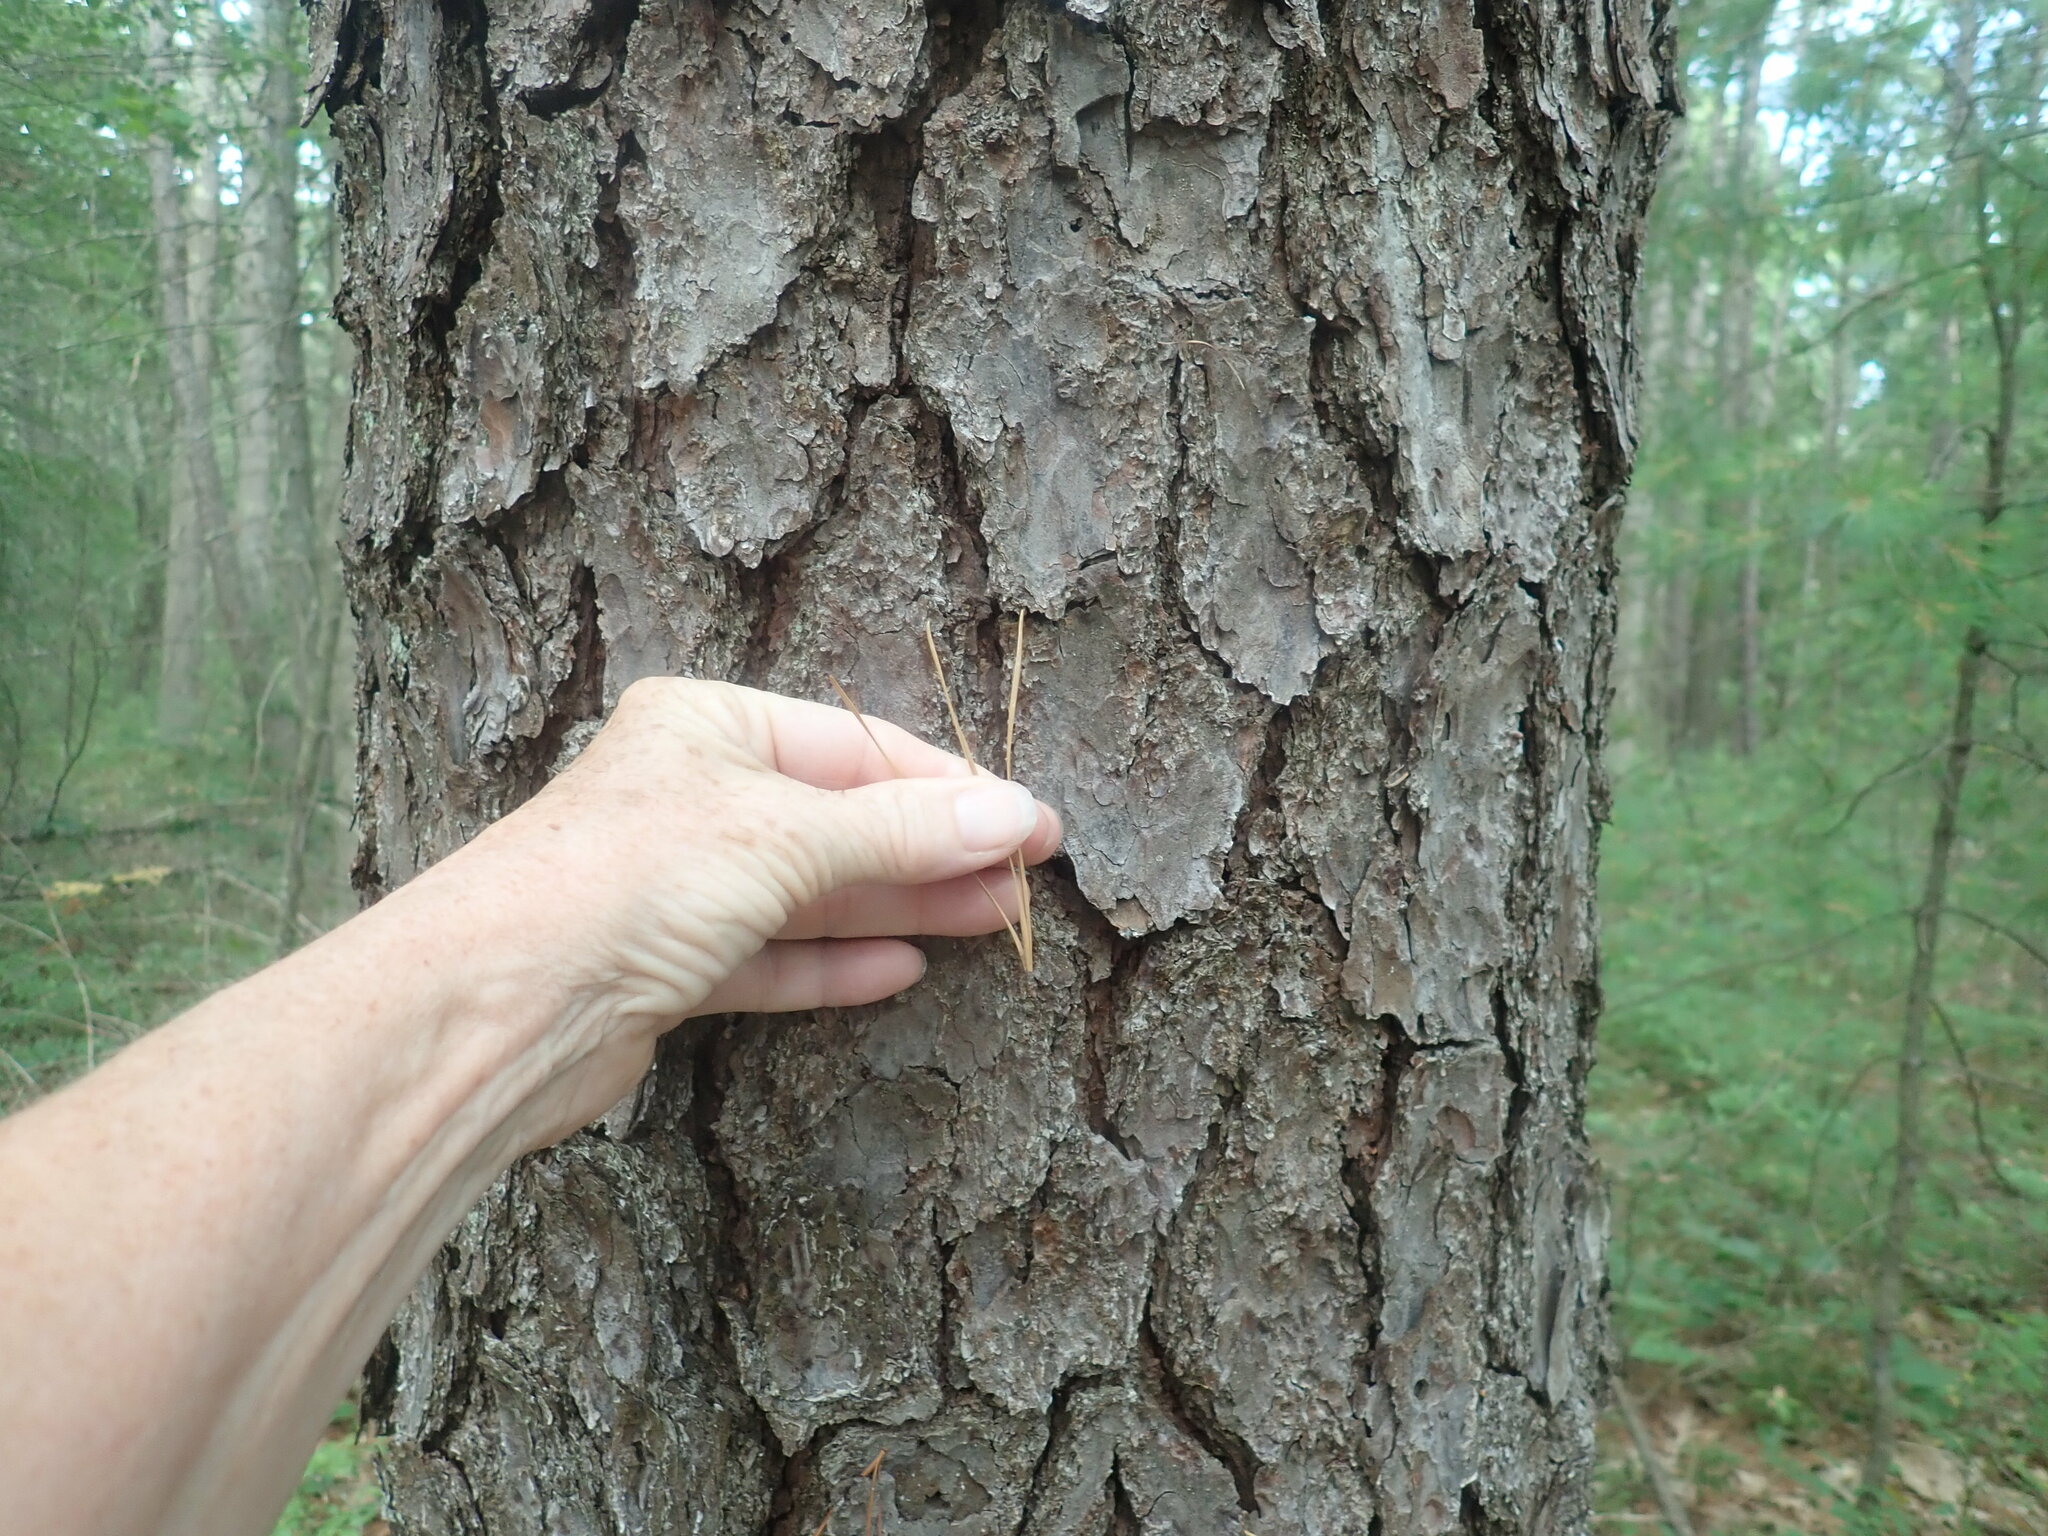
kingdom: Plantae
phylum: Tracheophyta
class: Pinopsida
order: Pinales
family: Pinaceae
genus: Pinus
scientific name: Pinus rigida
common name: Pitch pine
